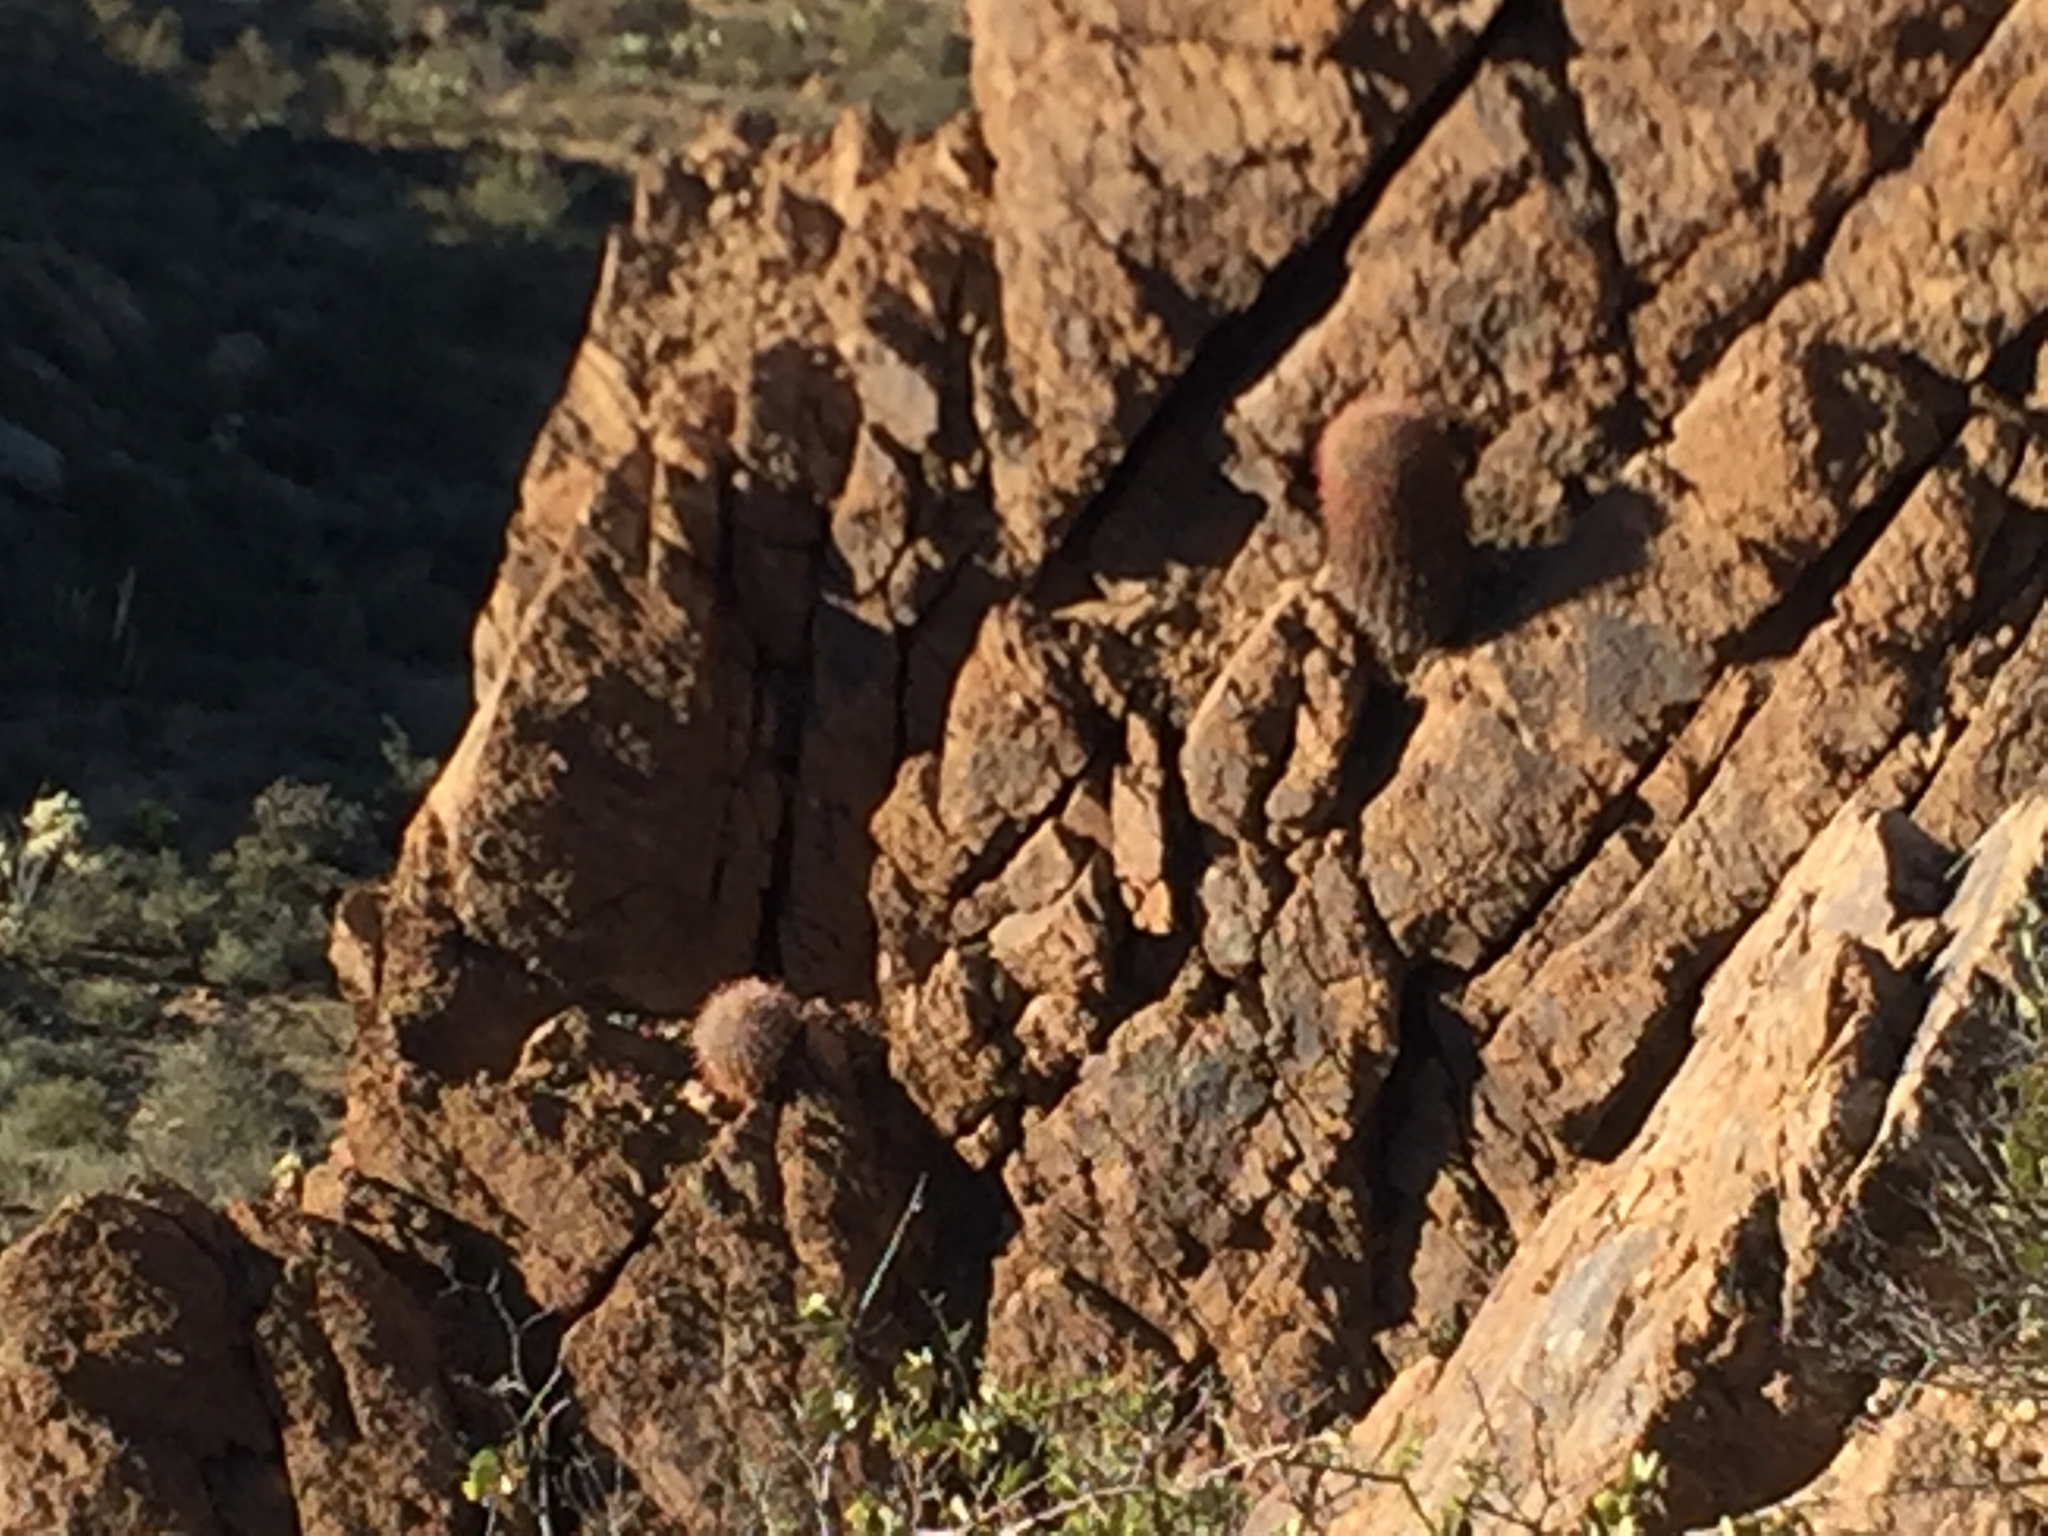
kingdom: Plantae
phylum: Tracheophyta
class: Magnoliopsida
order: Caryophyllales
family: Cactaceae
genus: Ferocactus
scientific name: Ferocactus cylindraceus
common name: California barrel cactus
